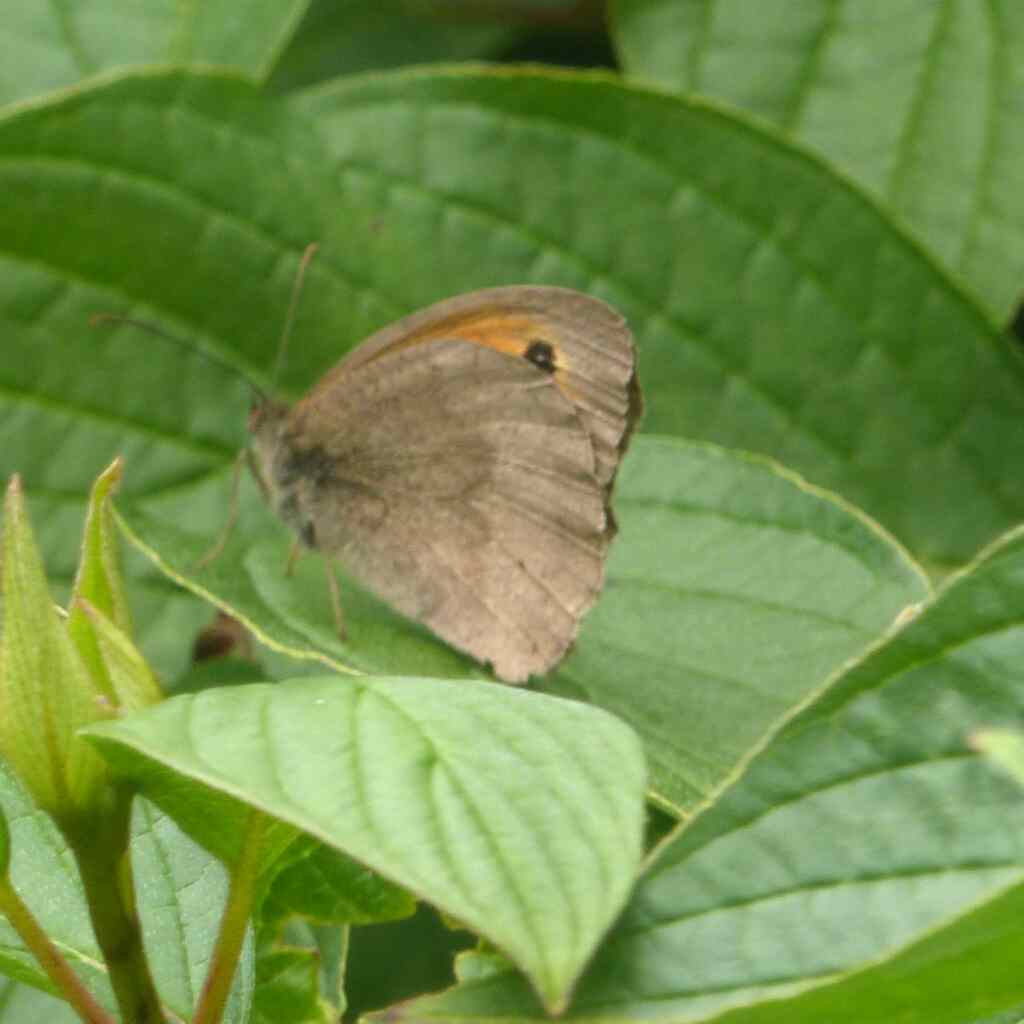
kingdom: Animalia
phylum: Arthropoda
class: Insecta
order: Lepidoptera
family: Nymphalidae
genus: Maniola
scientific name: Maniola jurtina
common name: Meadow brown
